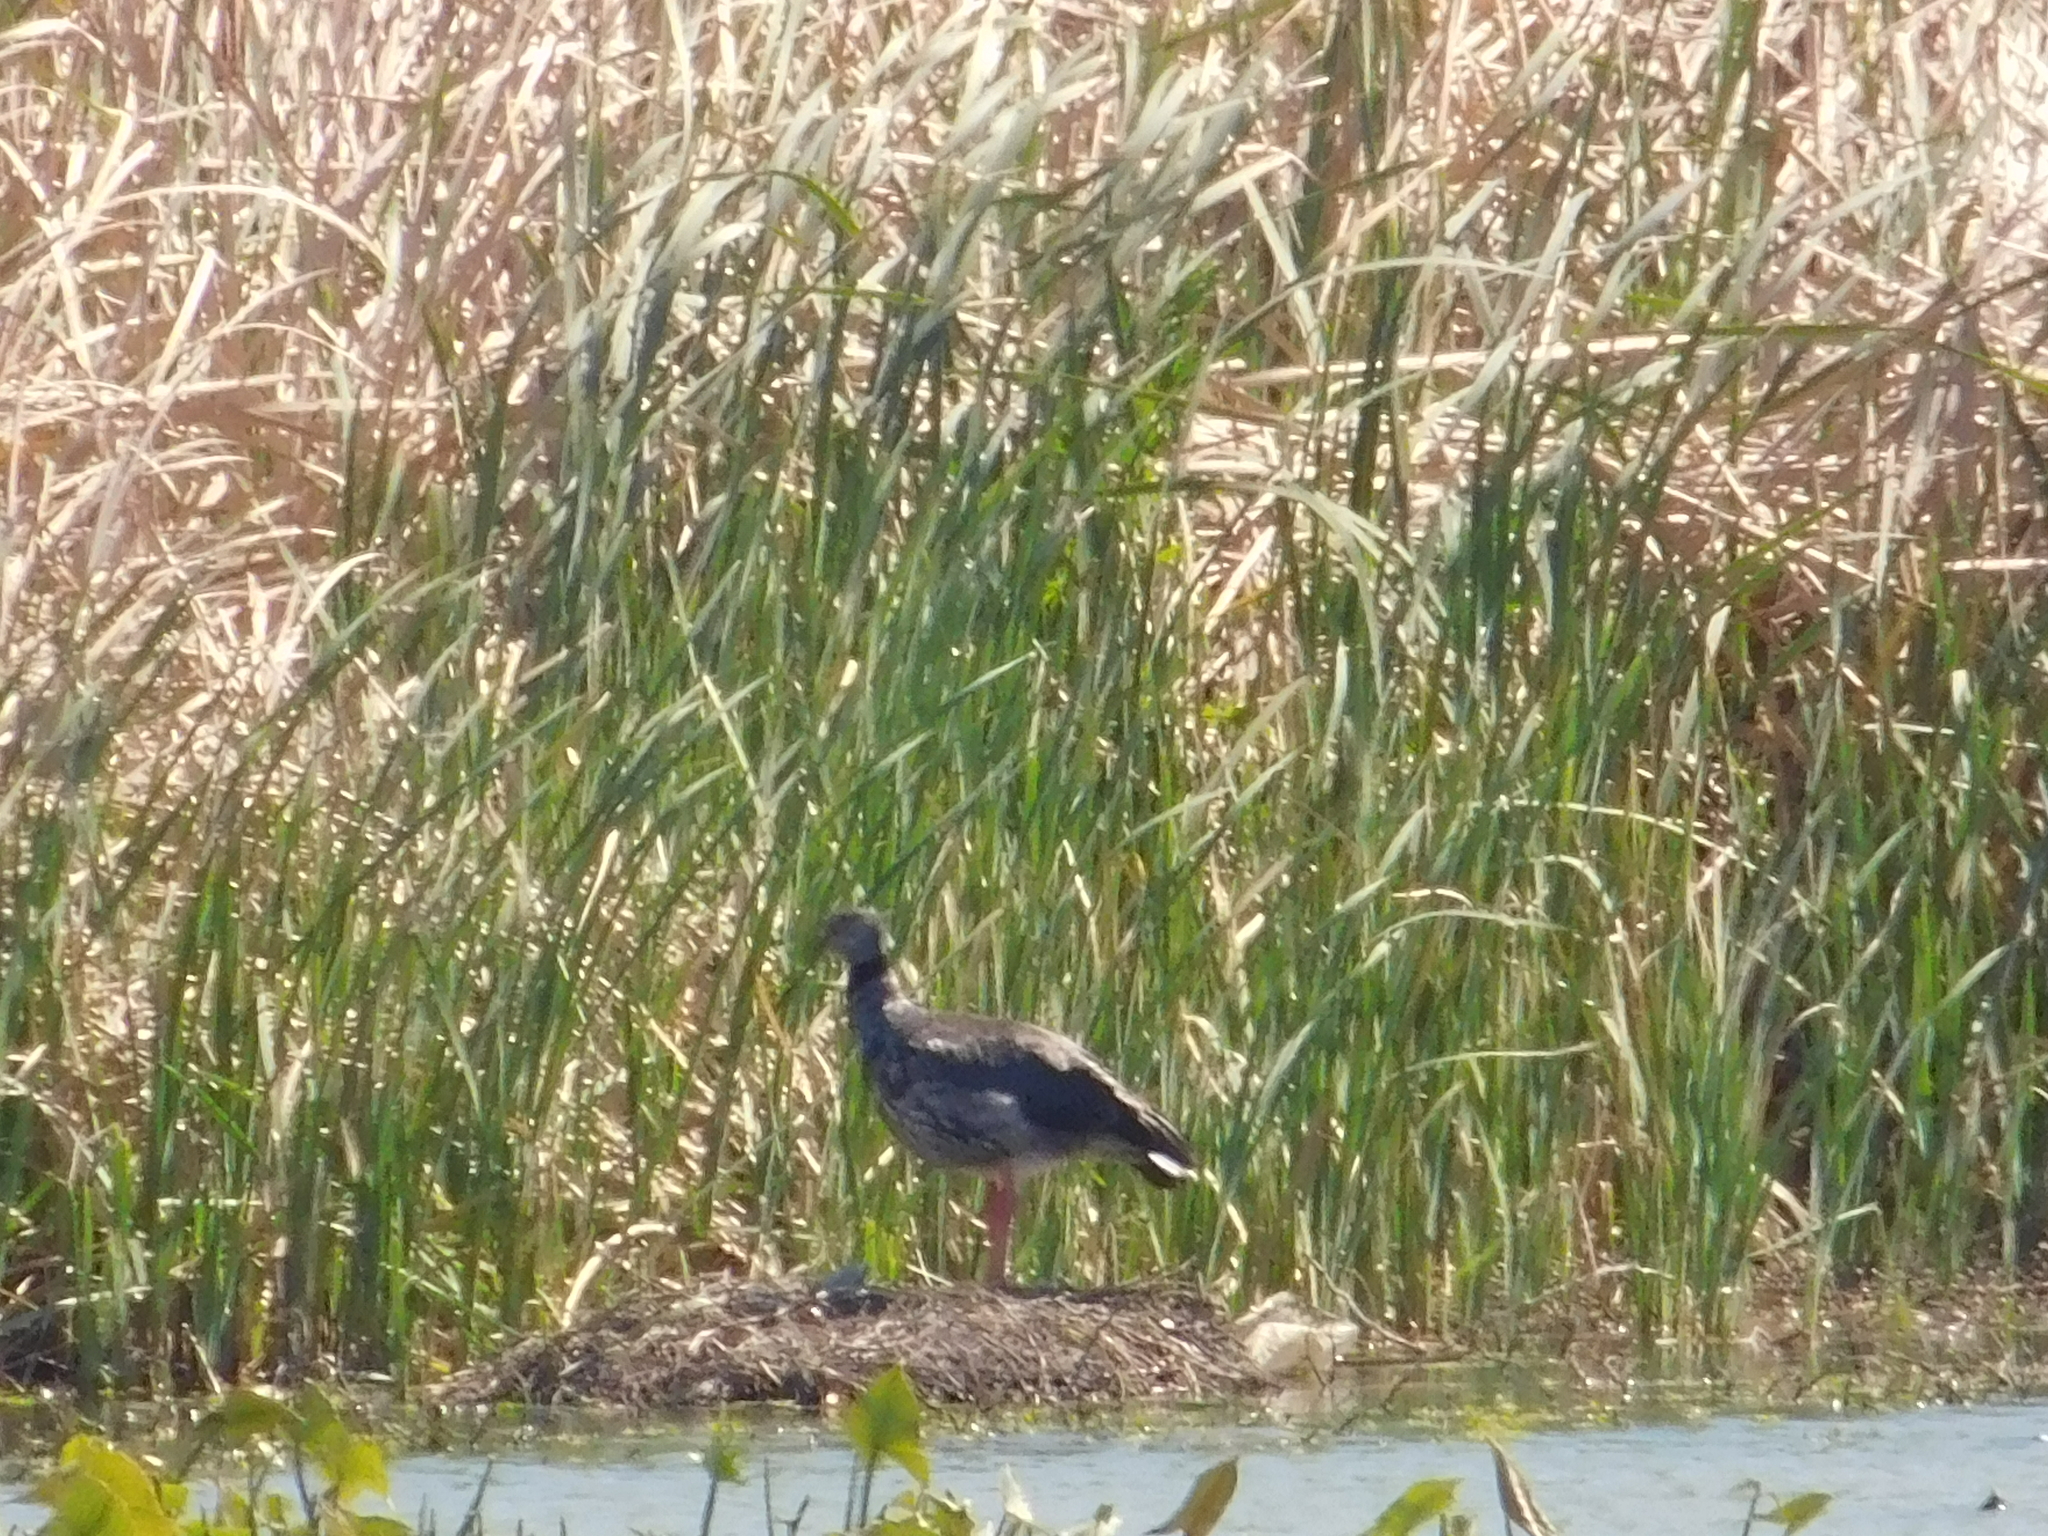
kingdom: Animalia
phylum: Chordata
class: Aves
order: Anseriformes
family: Anhimidae
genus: Chauna
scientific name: Chauna torquata
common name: Southern screamer
